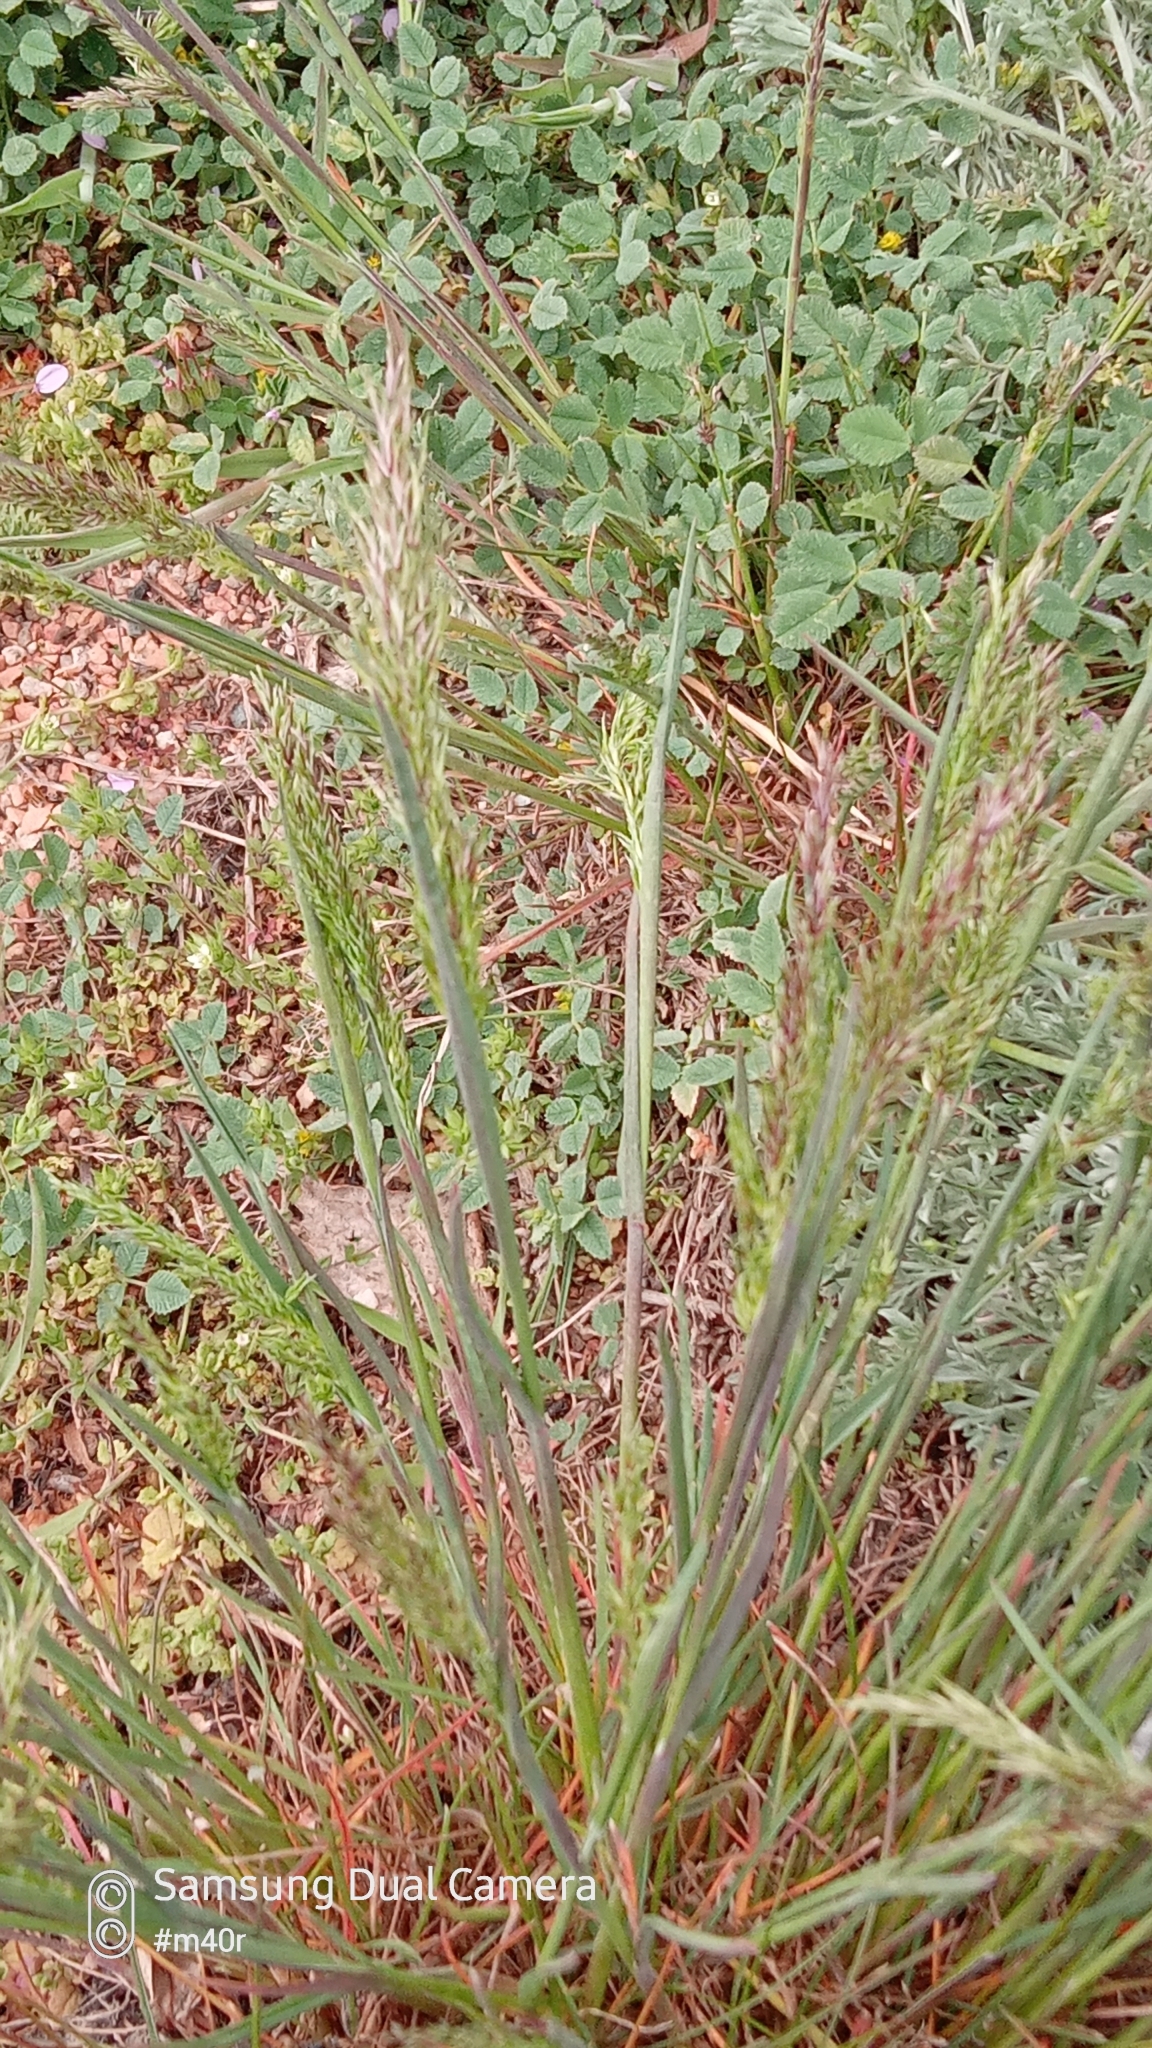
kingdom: Plantae
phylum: Tracheophyta
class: Liliopsida
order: Poales
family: Poaceae
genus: Poa
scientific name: Poa bulbosa
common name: Bulbous bluegrass
